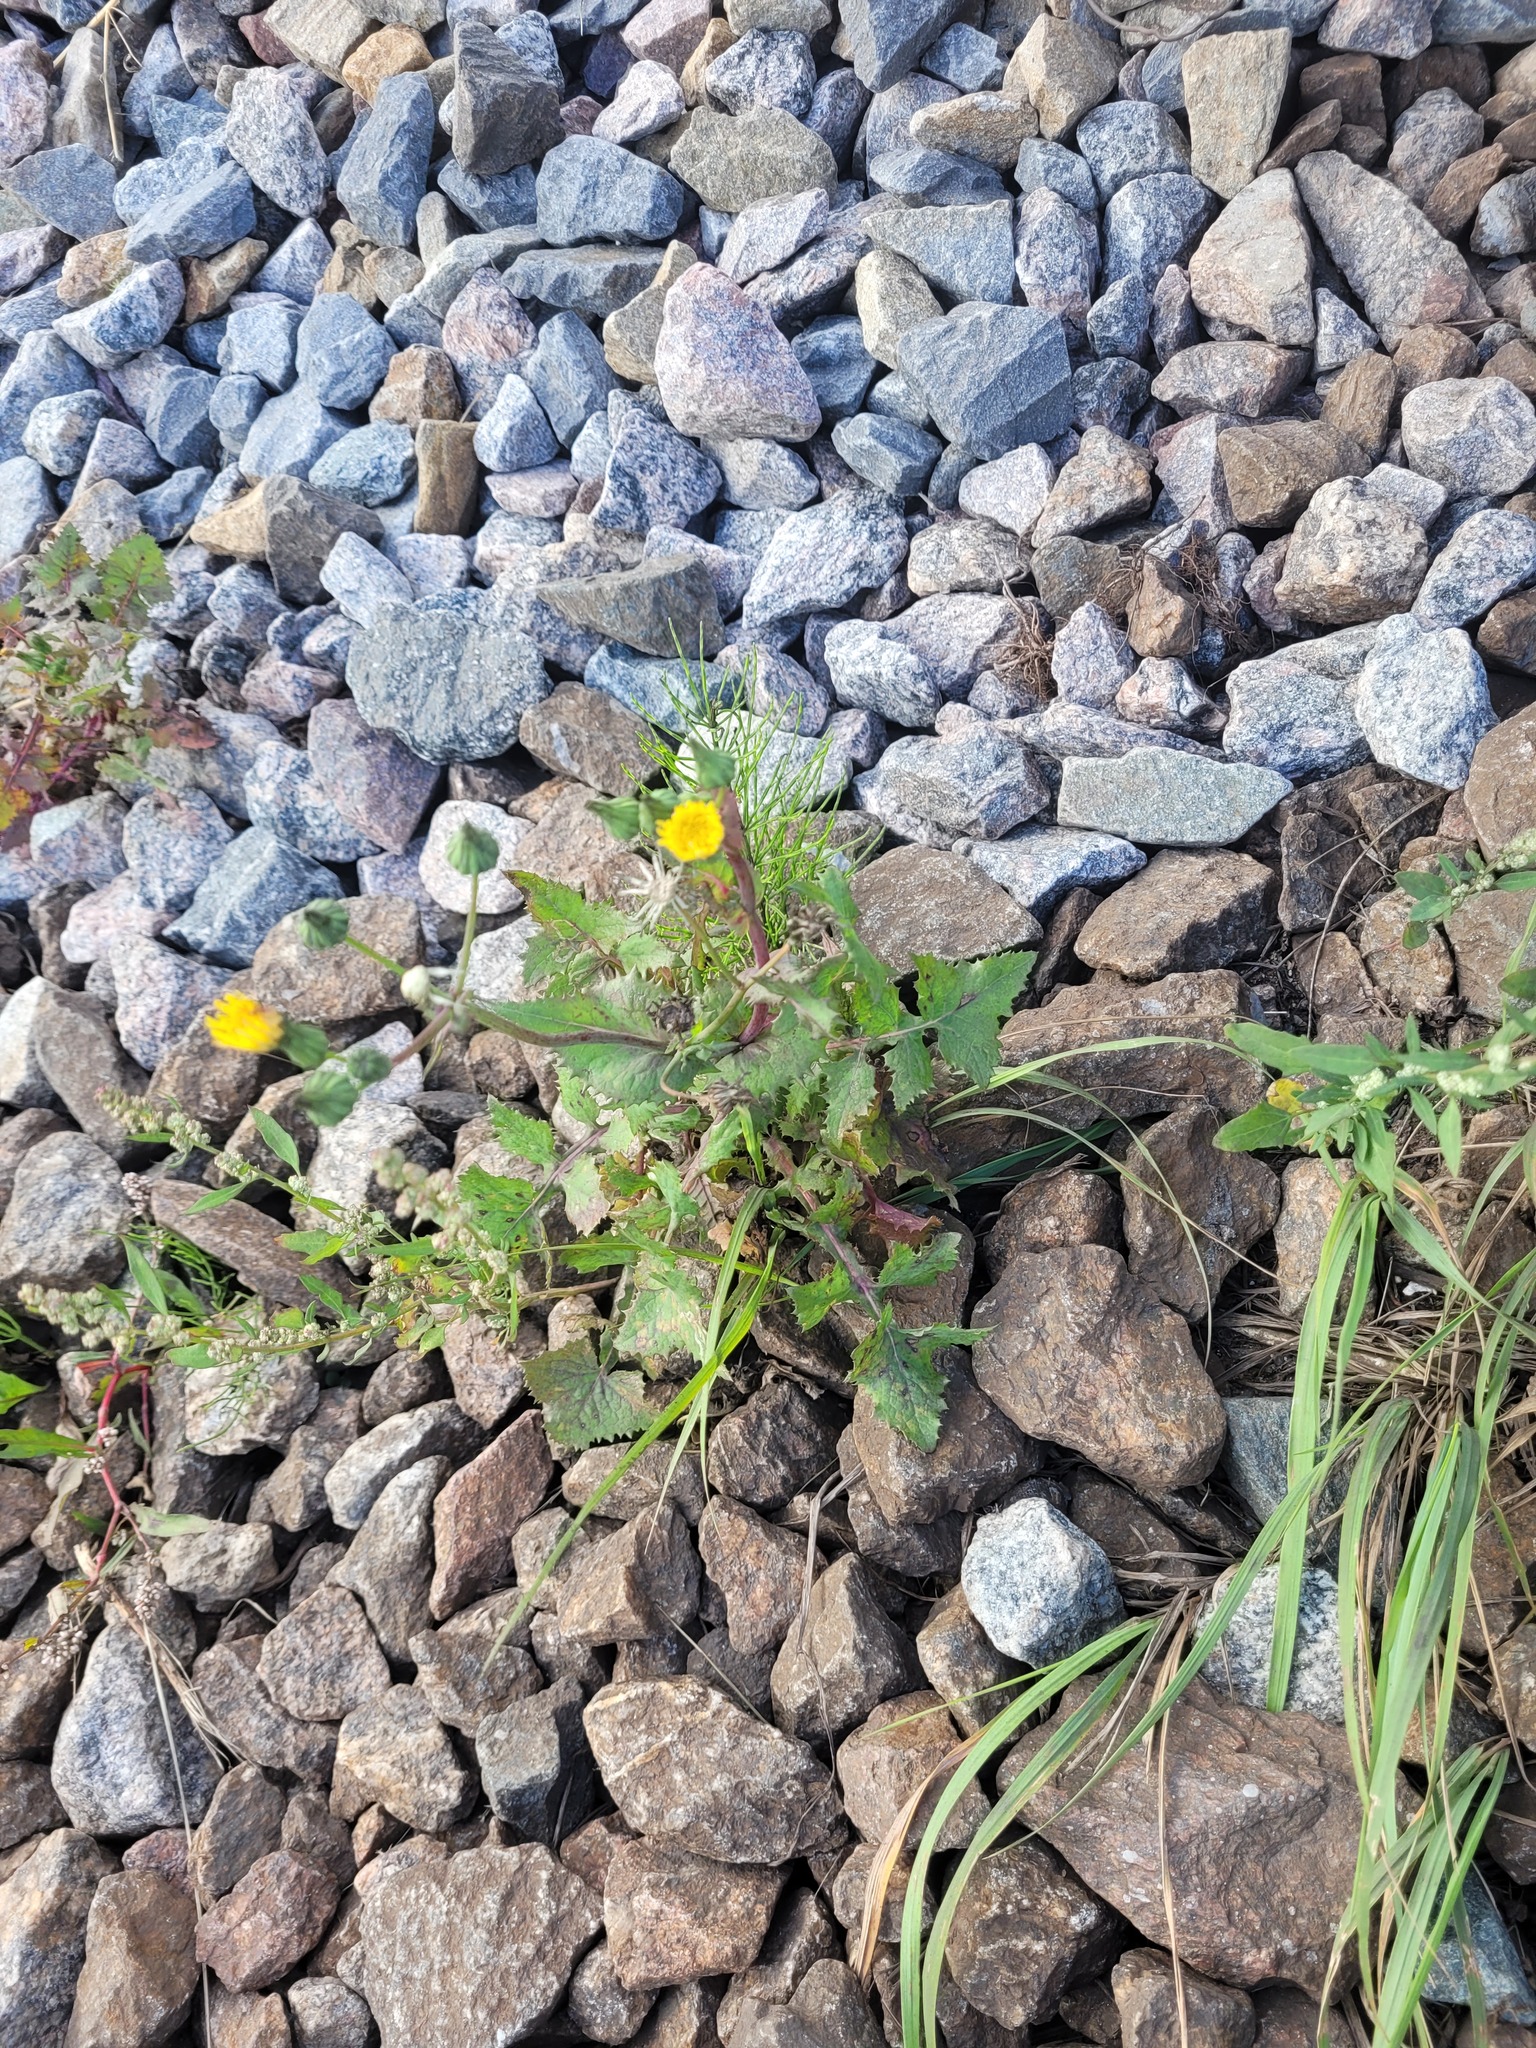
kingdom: Plantae
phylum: Tracheophyta
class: Magnoliopsida
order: Asterales
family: Asteraceae
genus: Sonchus
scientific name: Sonchus oleraceus
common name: Common sowthistle
